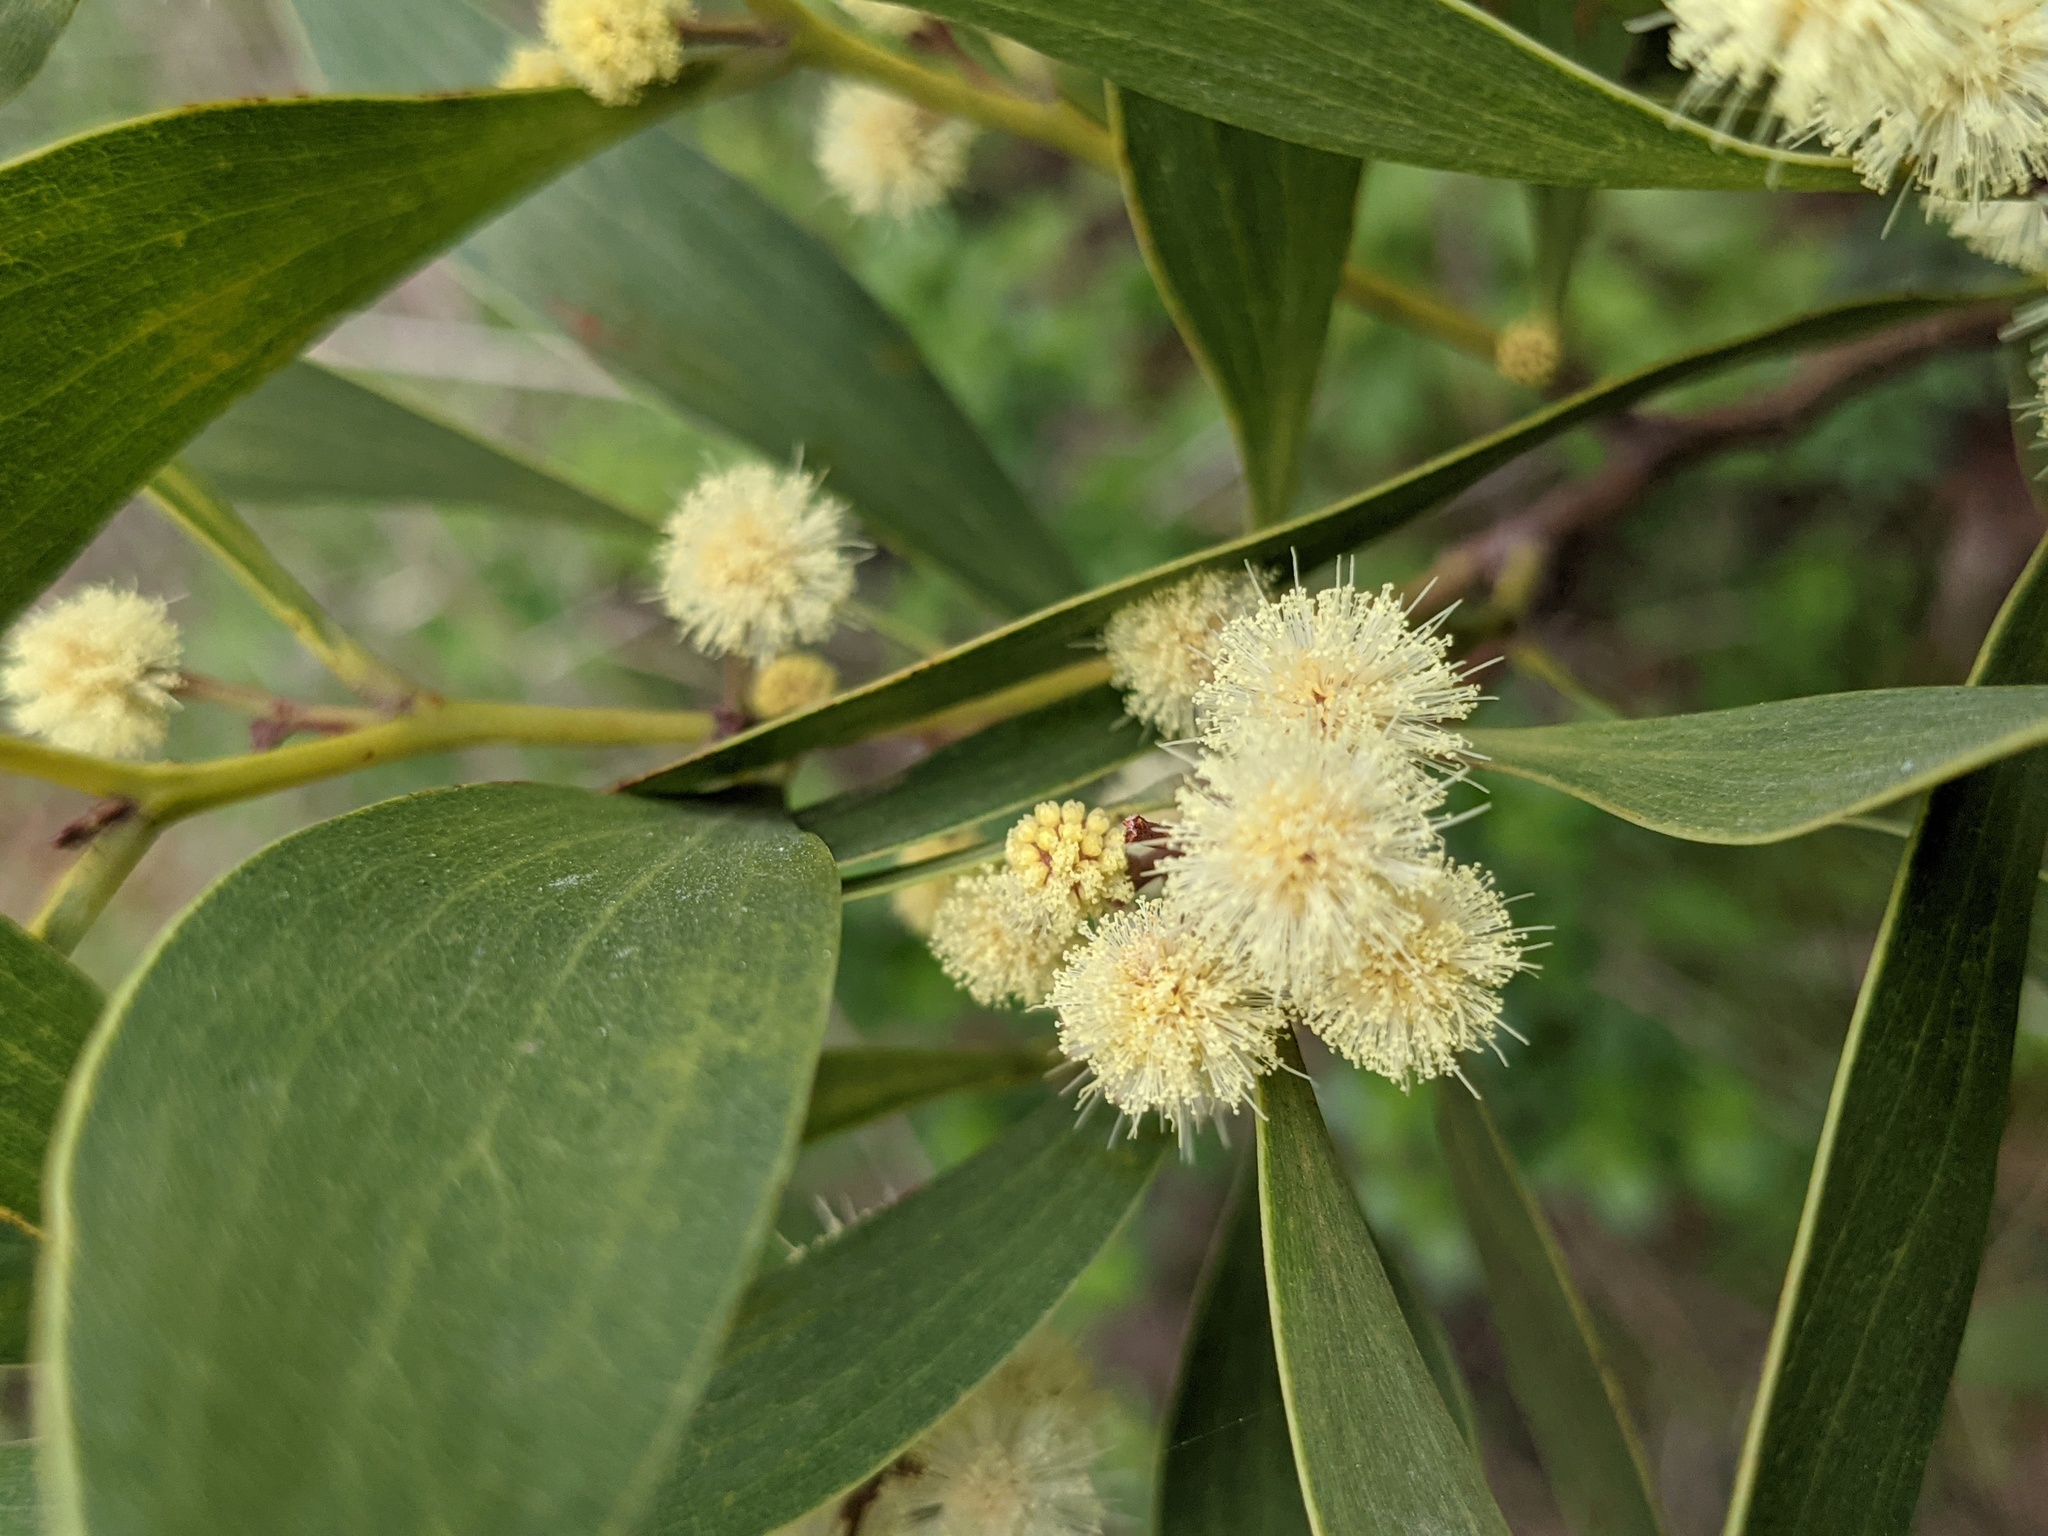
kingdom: Plantae
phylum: Tracheophyta
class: Magnoliopsida
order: Fabales
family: Fabaceae
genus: Acacia
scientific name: Acacia melanoxylon
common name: Blackwood
